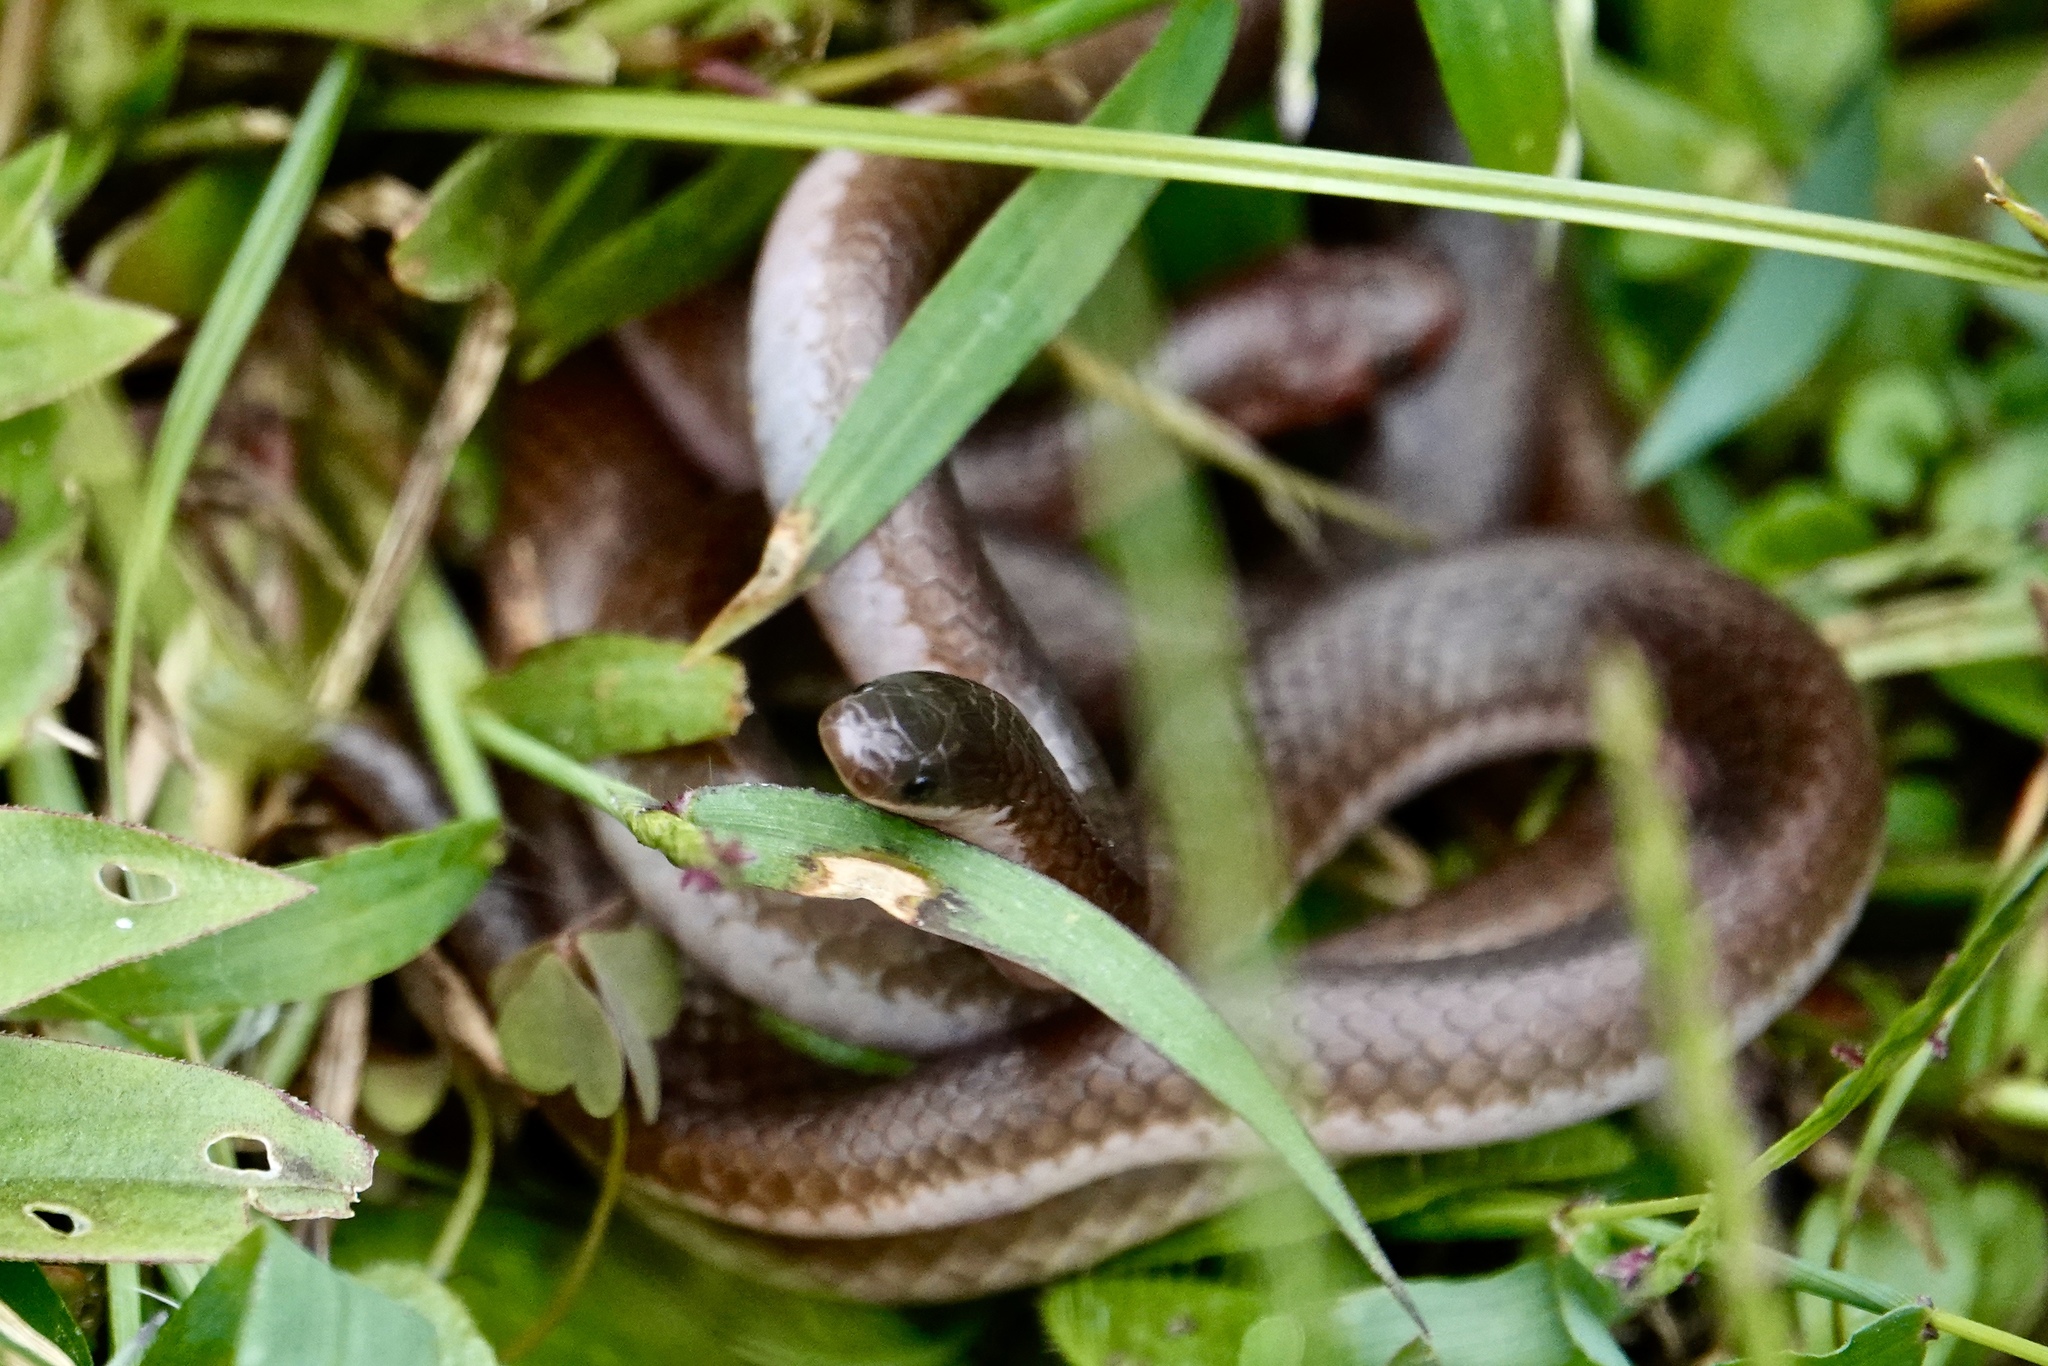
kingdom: Animalia
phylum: Chordata
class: Squamata
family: Colubridae
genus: Carphophis
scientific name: Carphophis amoenus
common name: Eastern worm snake
